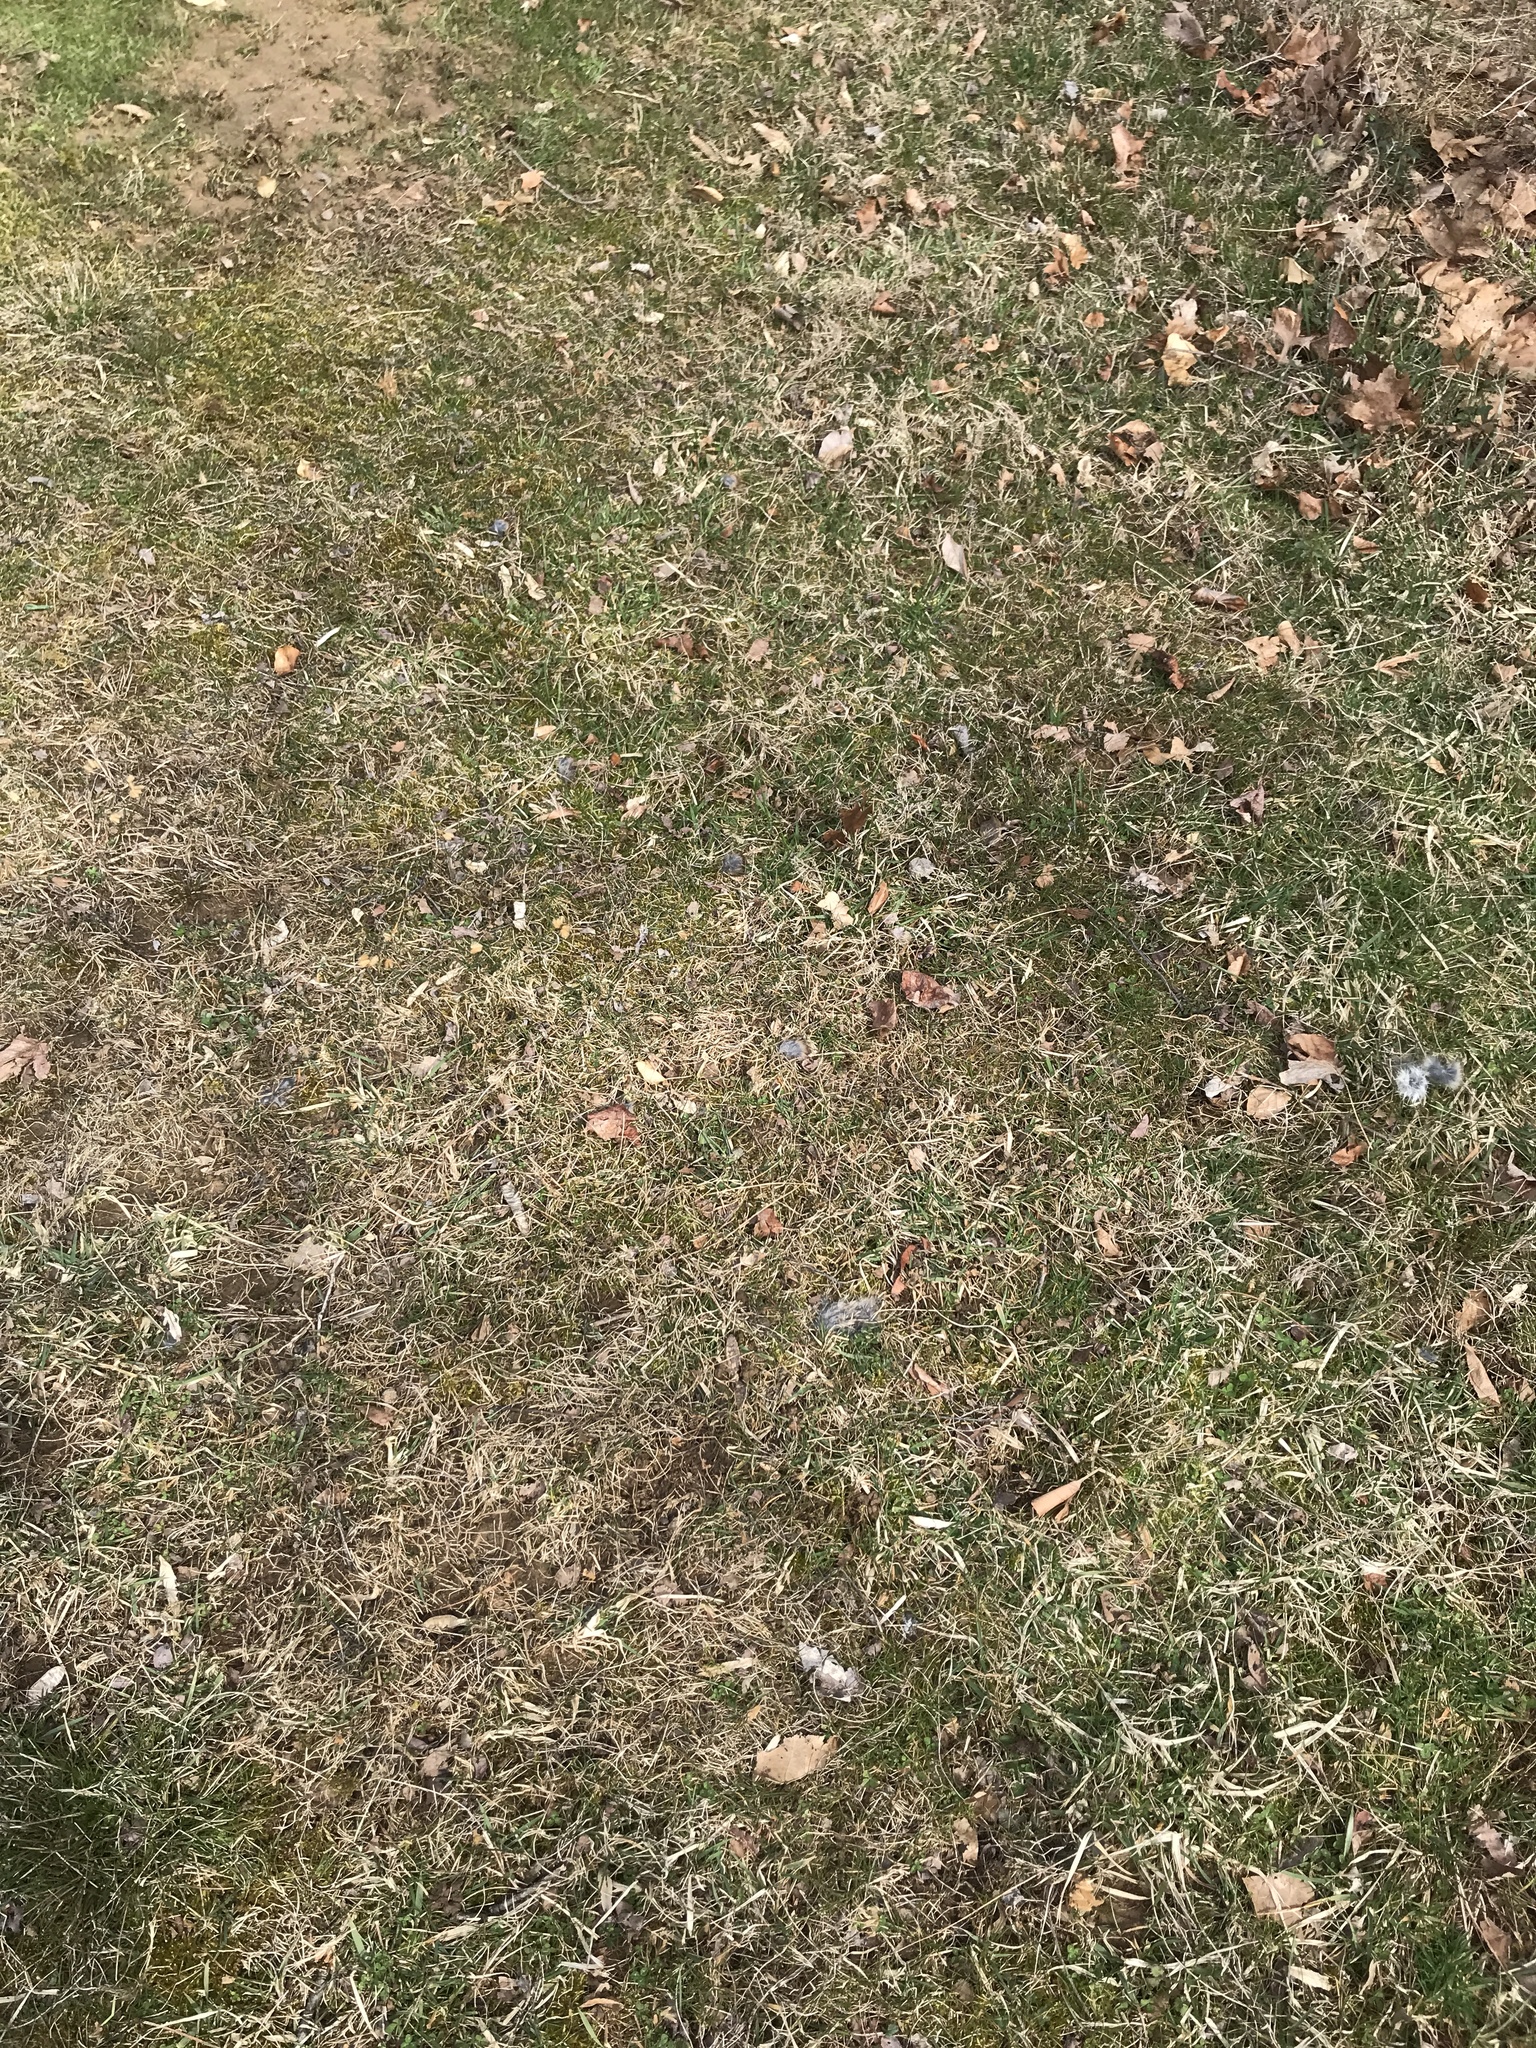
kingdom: Animalia
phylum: Chordata
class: Mammalia
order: Lagomorpha
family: Leporidae
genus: Sylvilagus
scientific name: Sylvilagus floridanus
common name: Eastern cottontail
